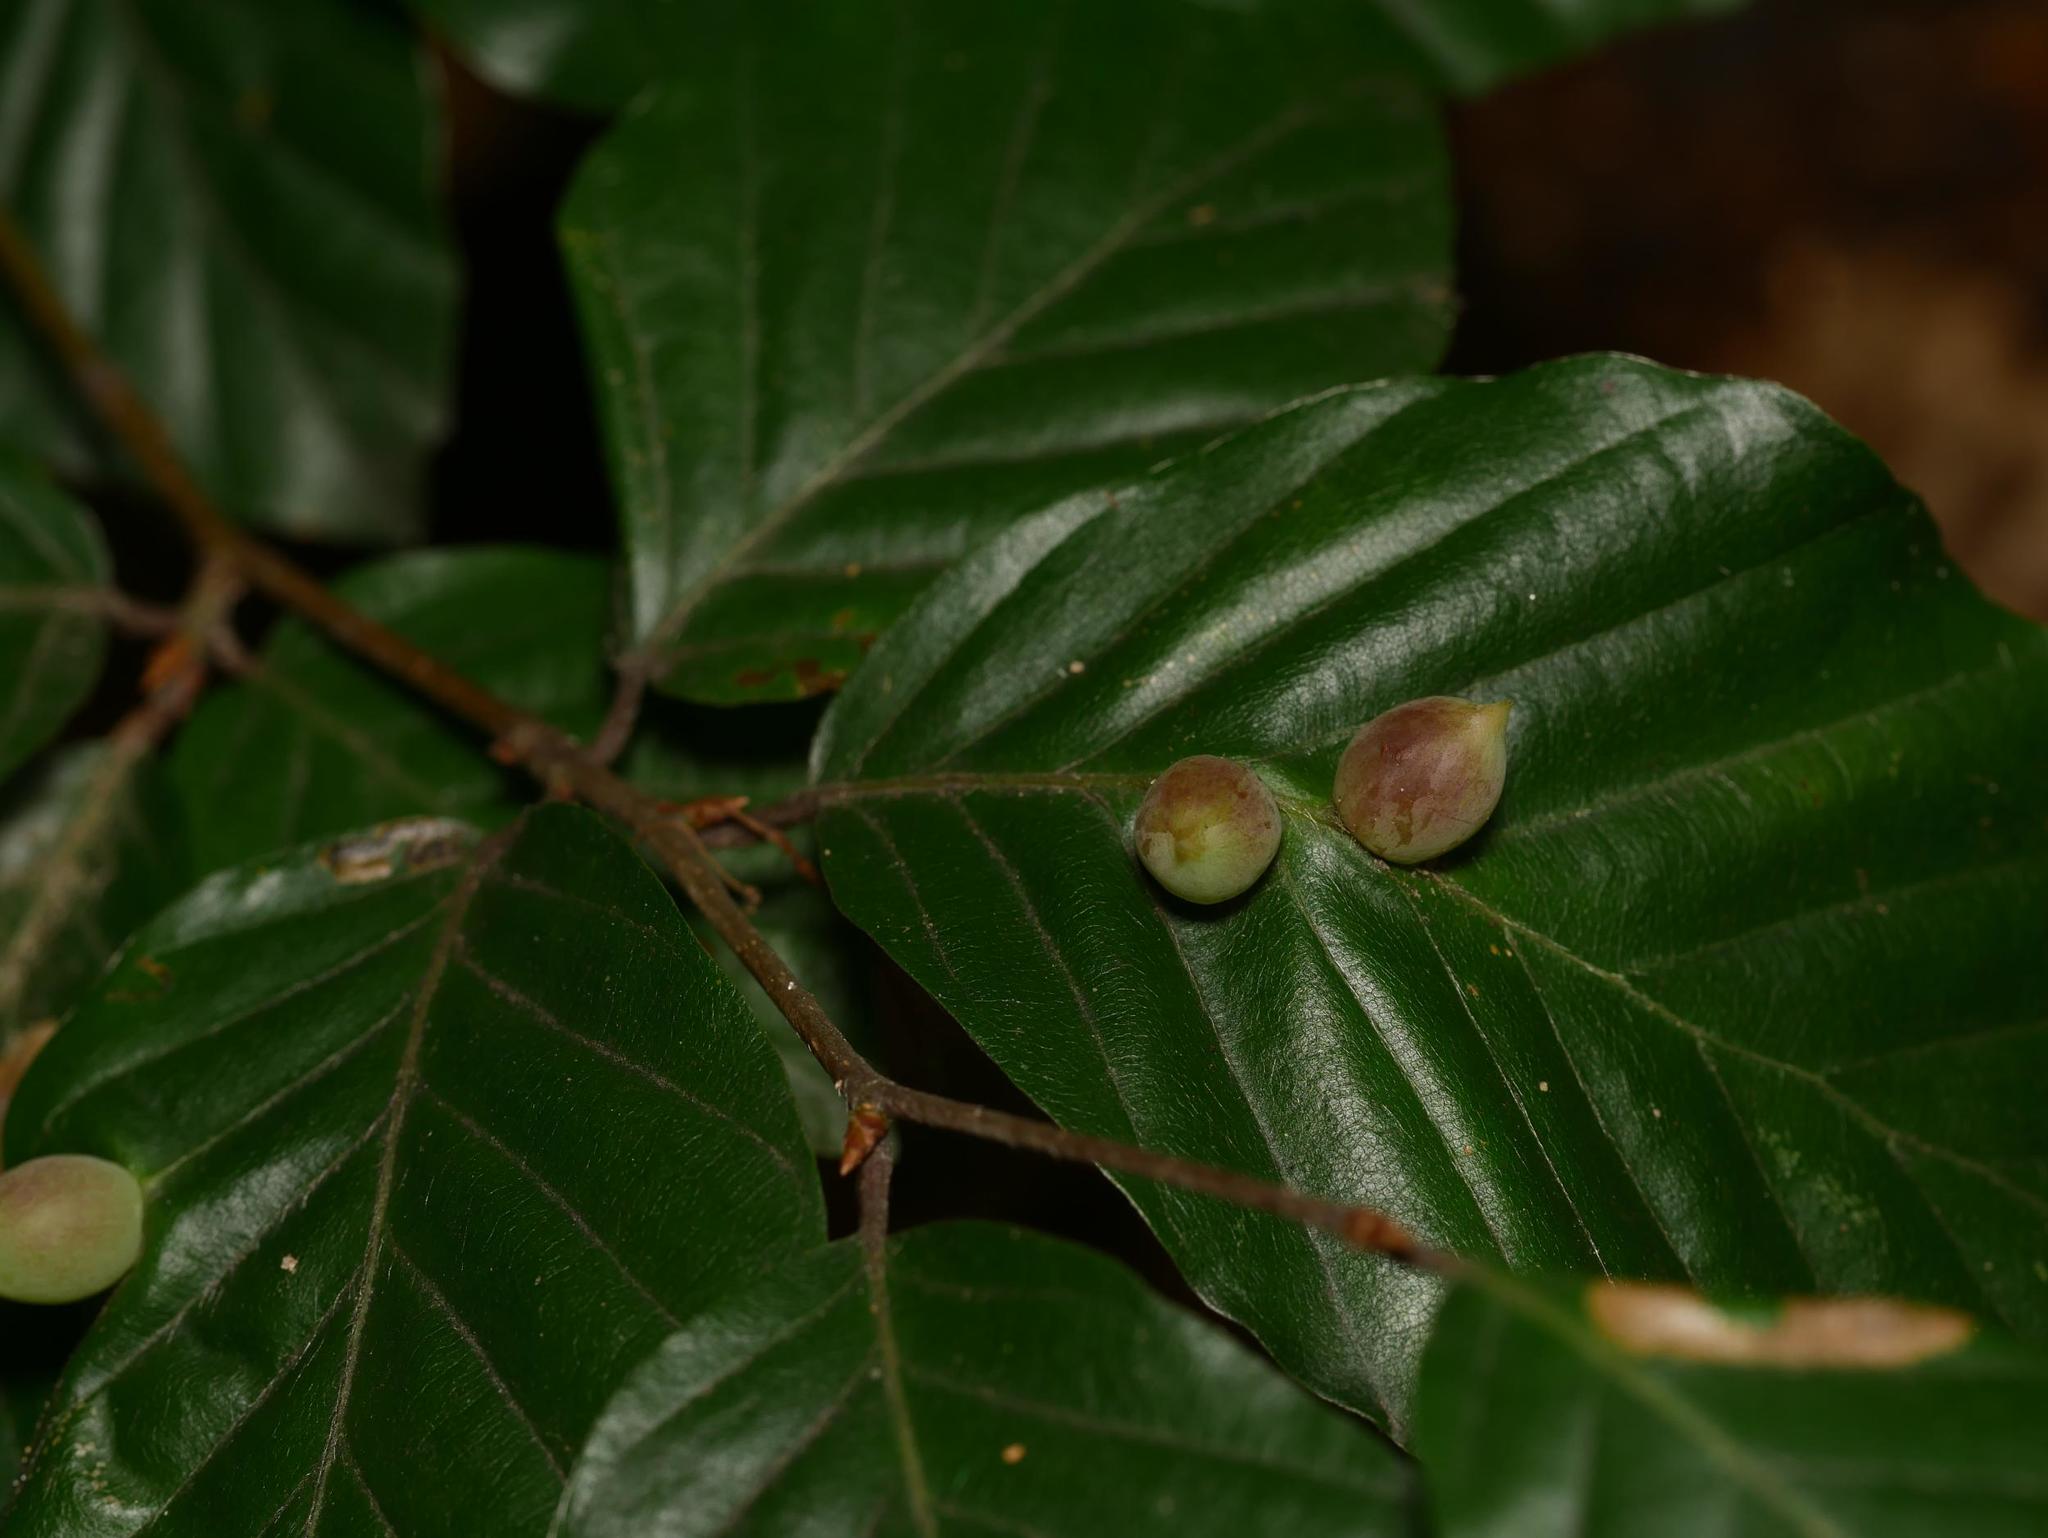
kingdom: Animalia
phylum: Arthropoda
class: Insecta
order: Diptera
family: Cecidomyiidae
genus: Mikiola
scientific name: Mikiola fagi
